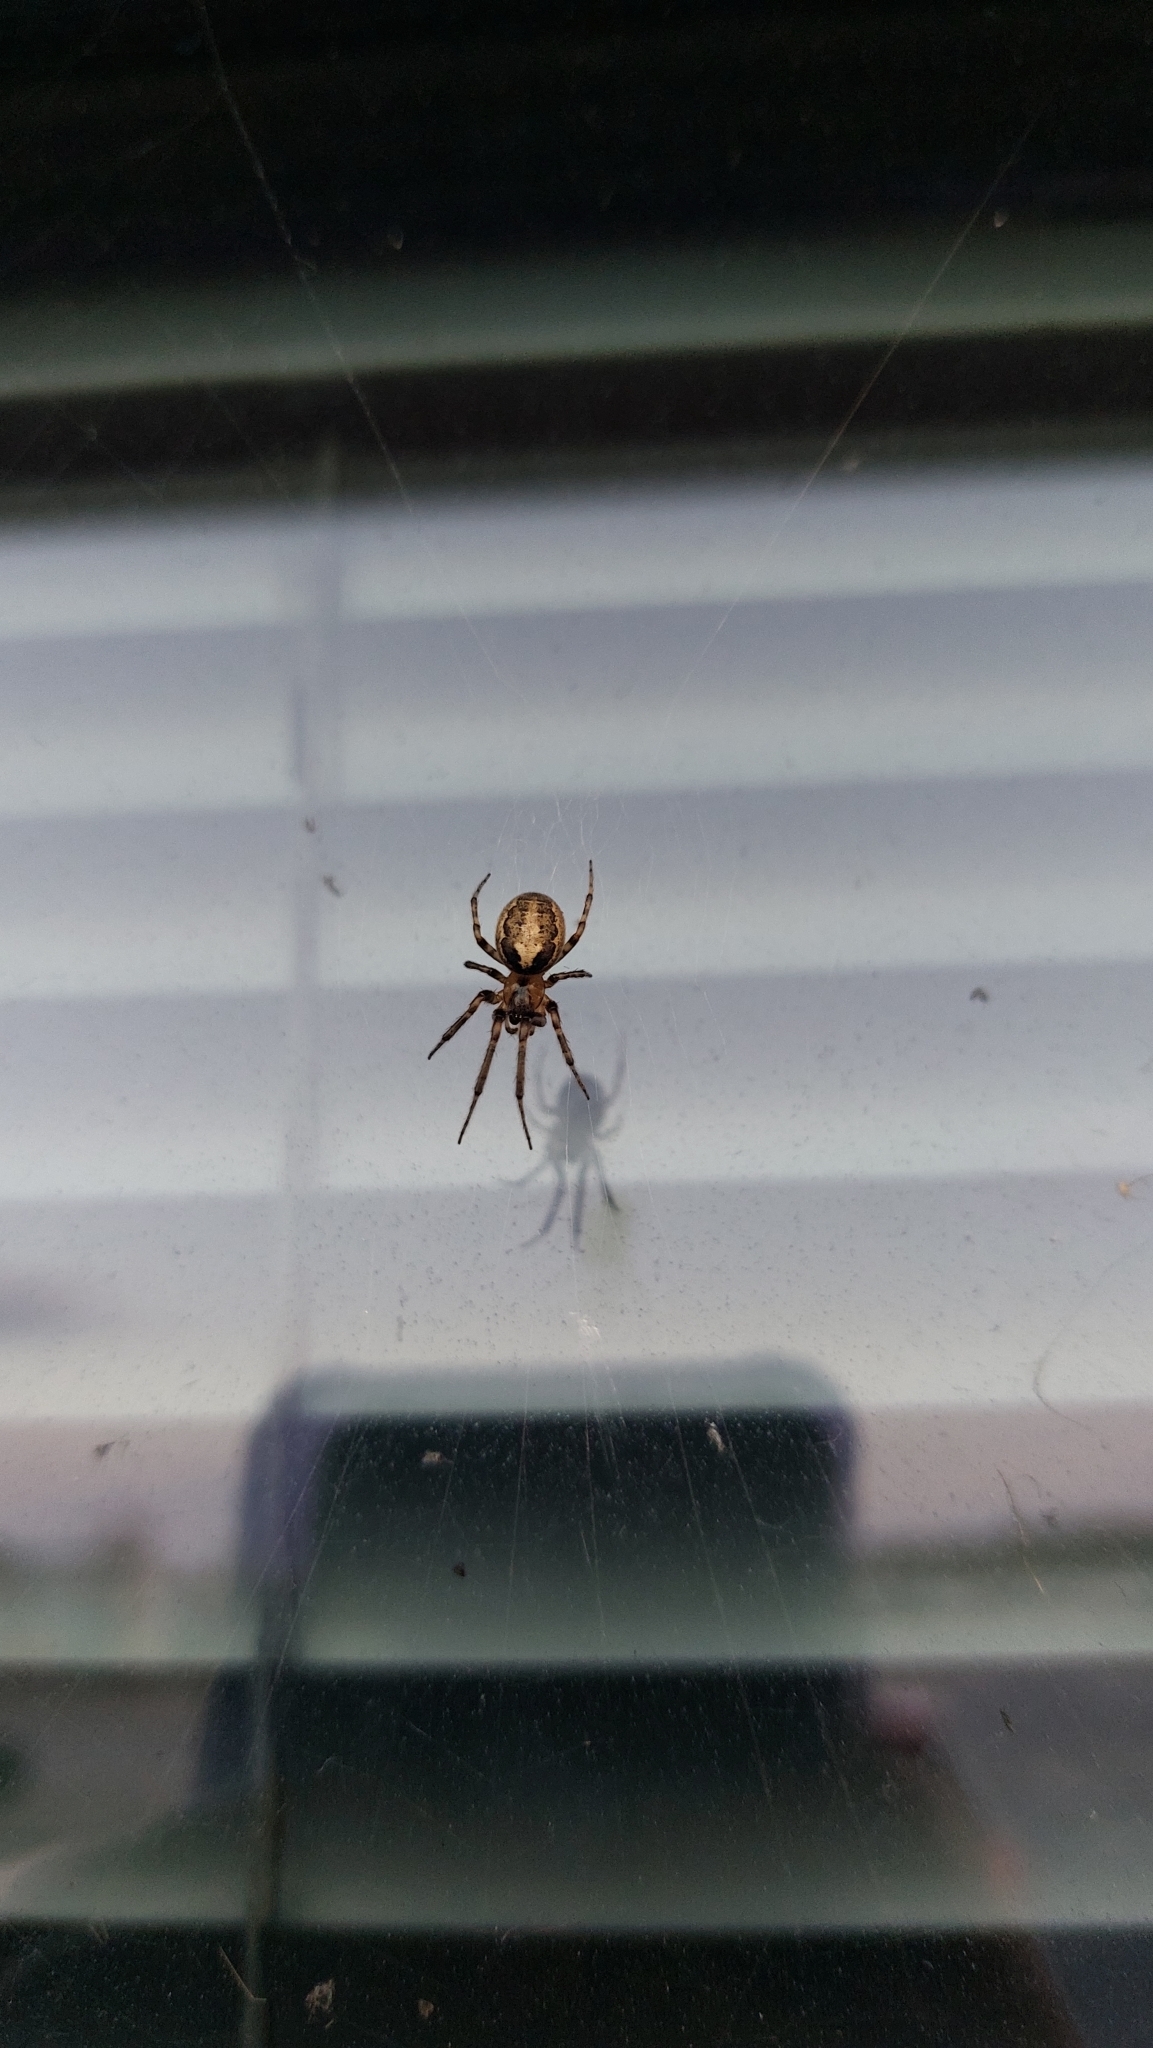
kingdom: Animalia
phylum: Arthropoda
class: Arachnida
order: Araneae
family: Araneidae
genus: Zygiella
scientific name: Zygiella x-notata
